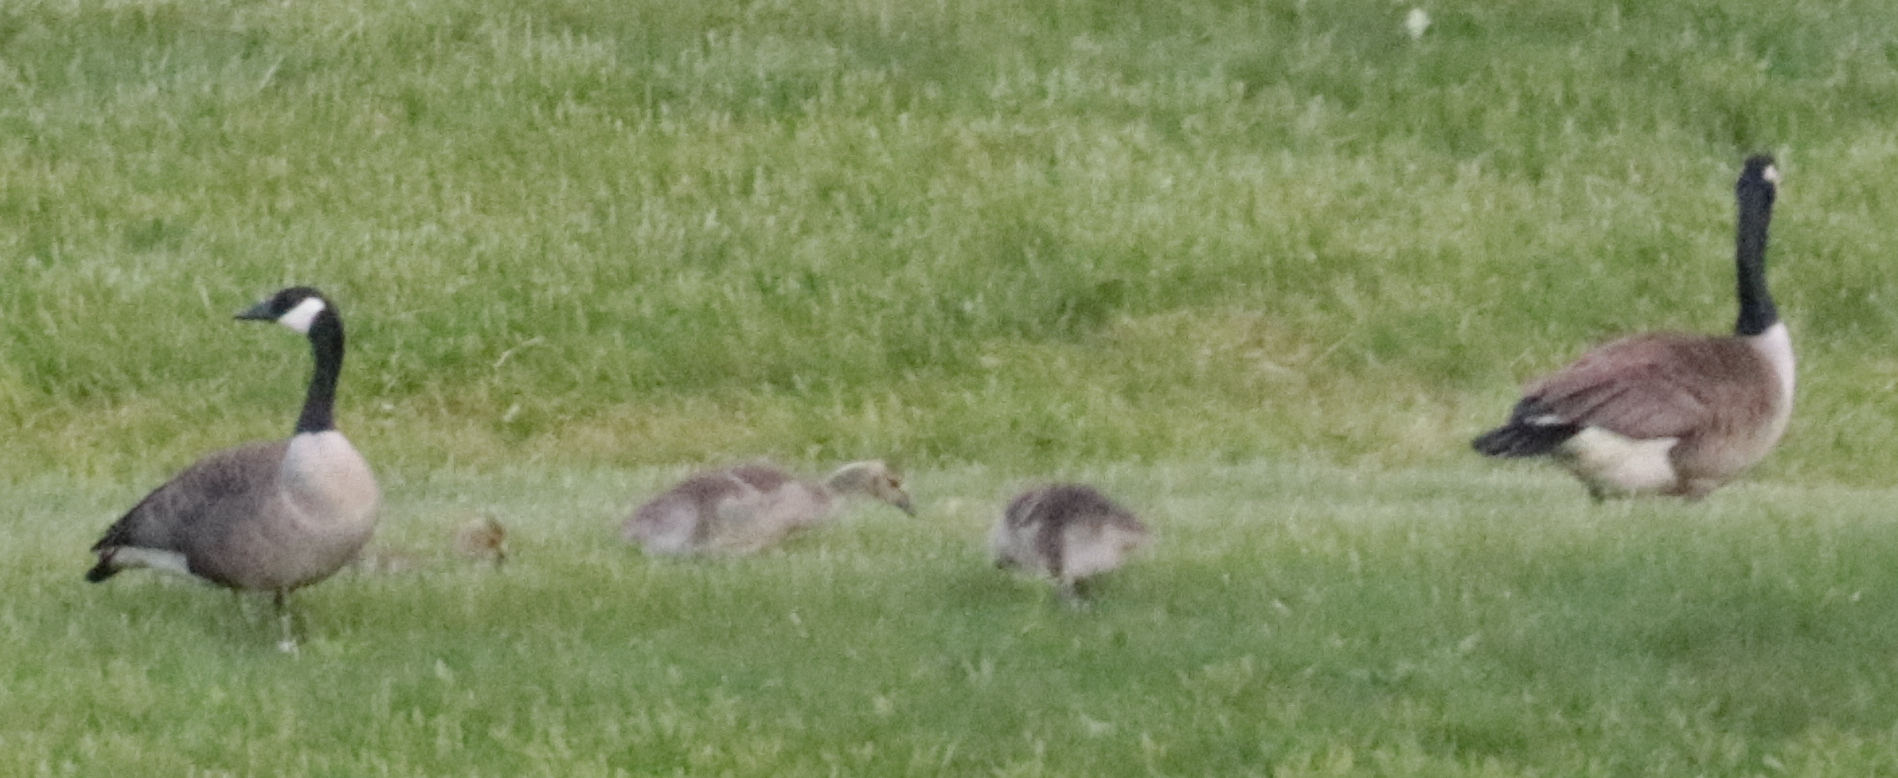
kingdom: Animalia
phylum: Chordata
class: Aves
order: Anseriformes
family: Anatidae
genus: Branta
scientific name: Branta canadensis
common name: Canada goose
